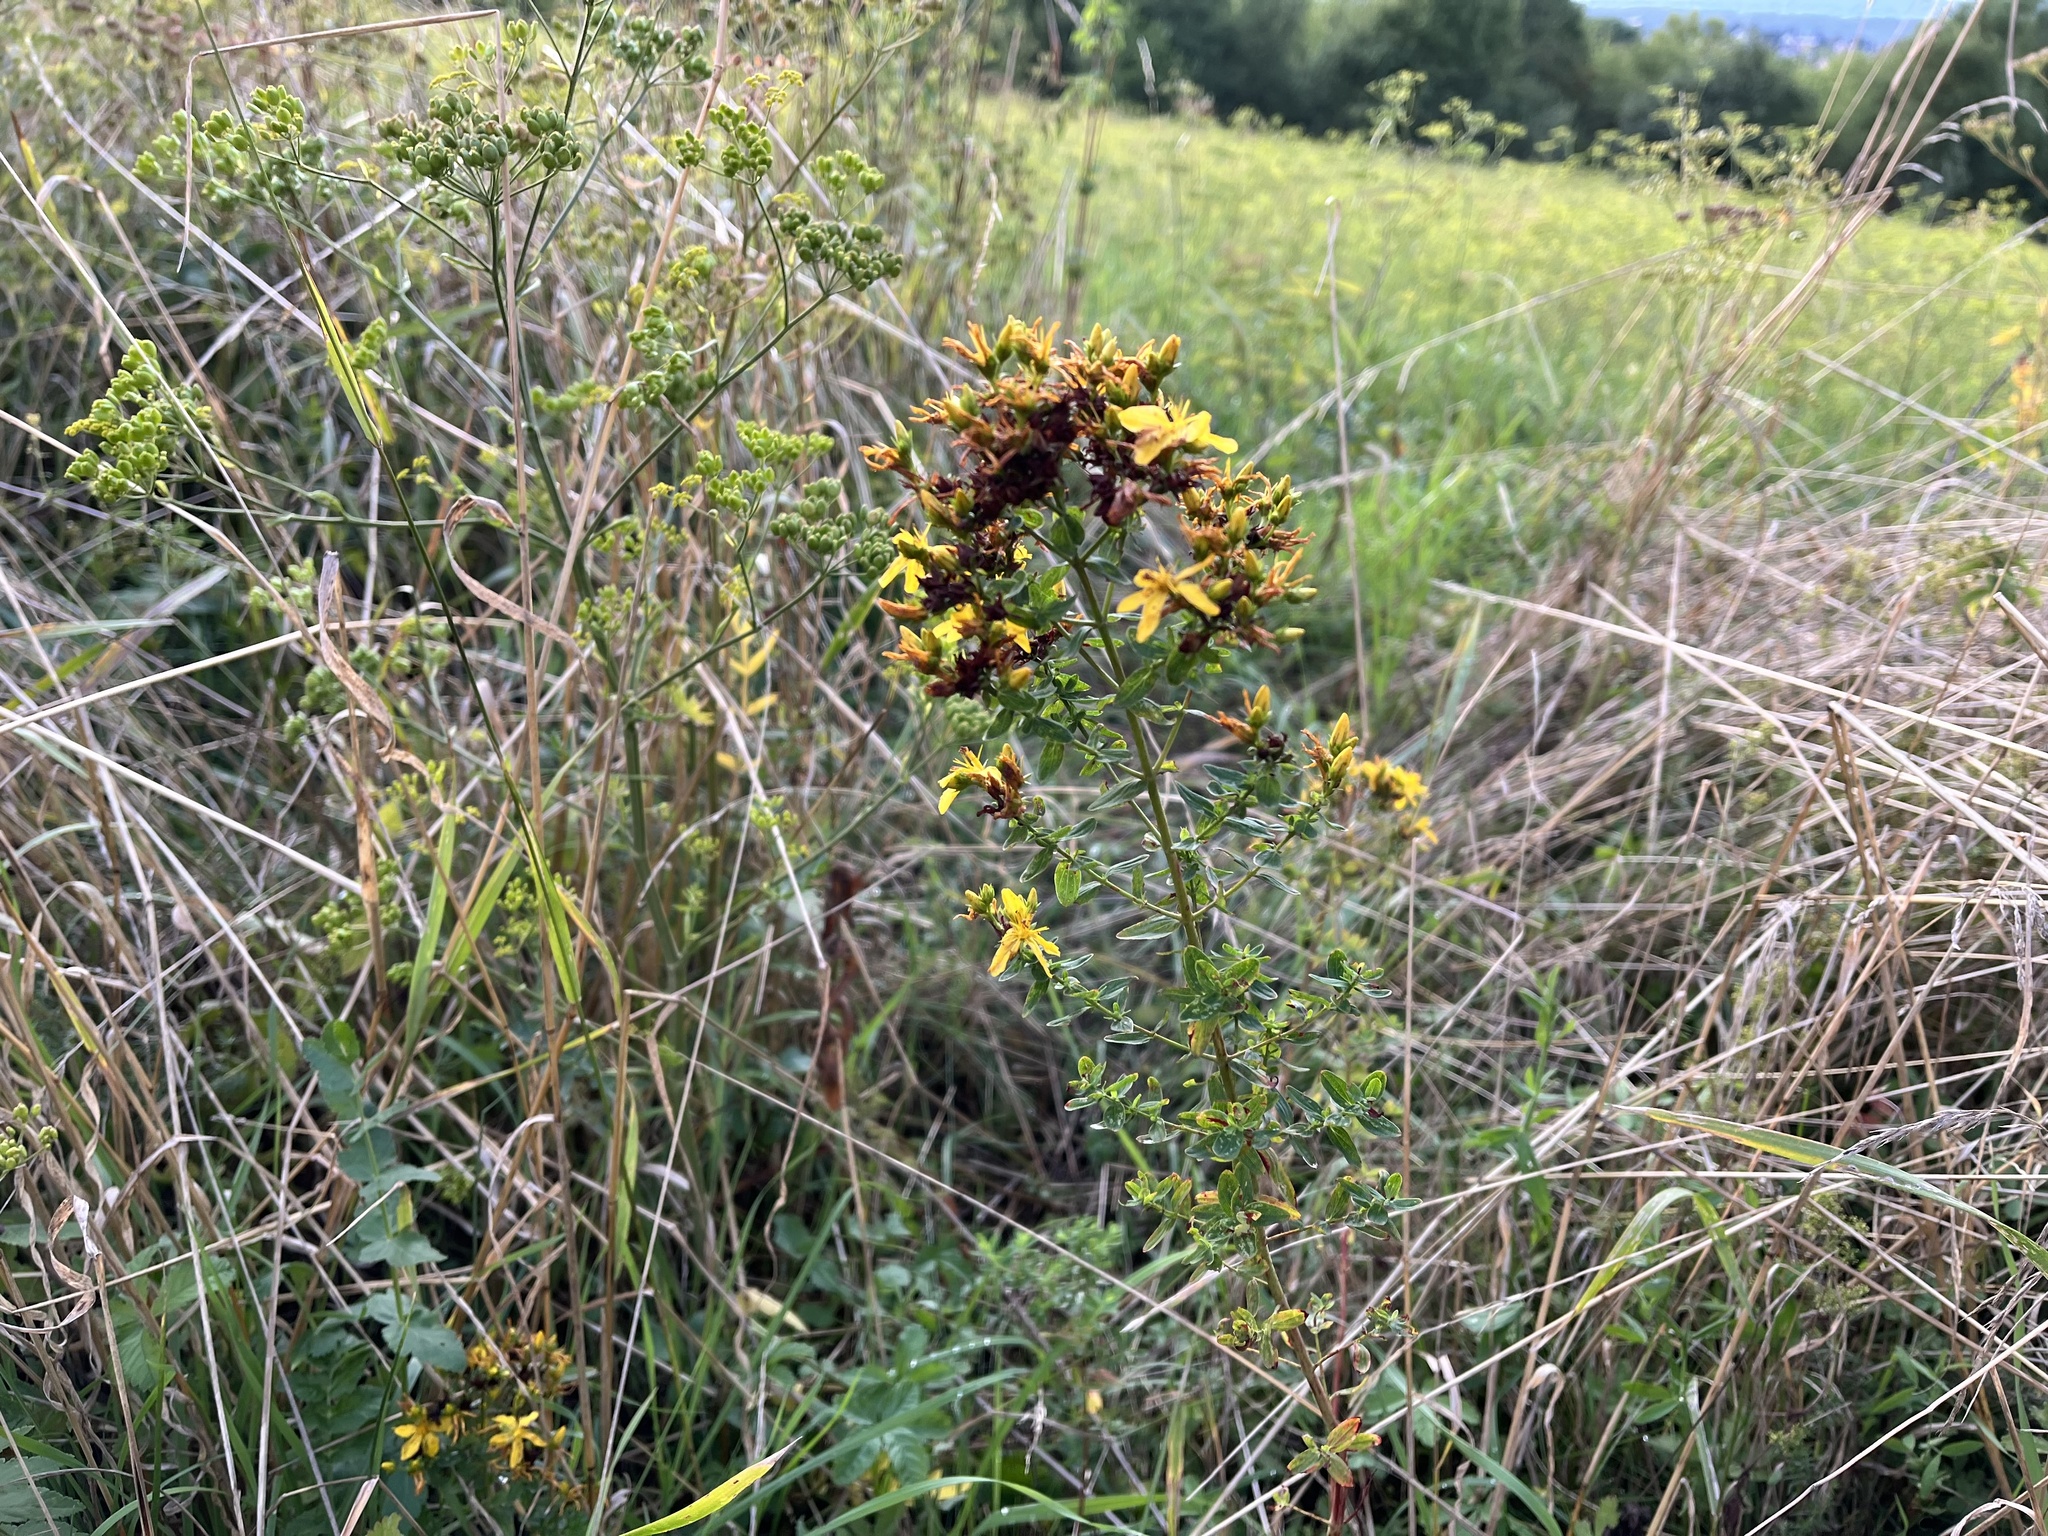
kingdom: Plantae
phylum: Tracheophyta
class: Magnoliopsida
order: Malpighiales
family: Hypericaceae
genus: Hypericum
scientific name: Hypericum perforatum
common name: Common st. johnswort
